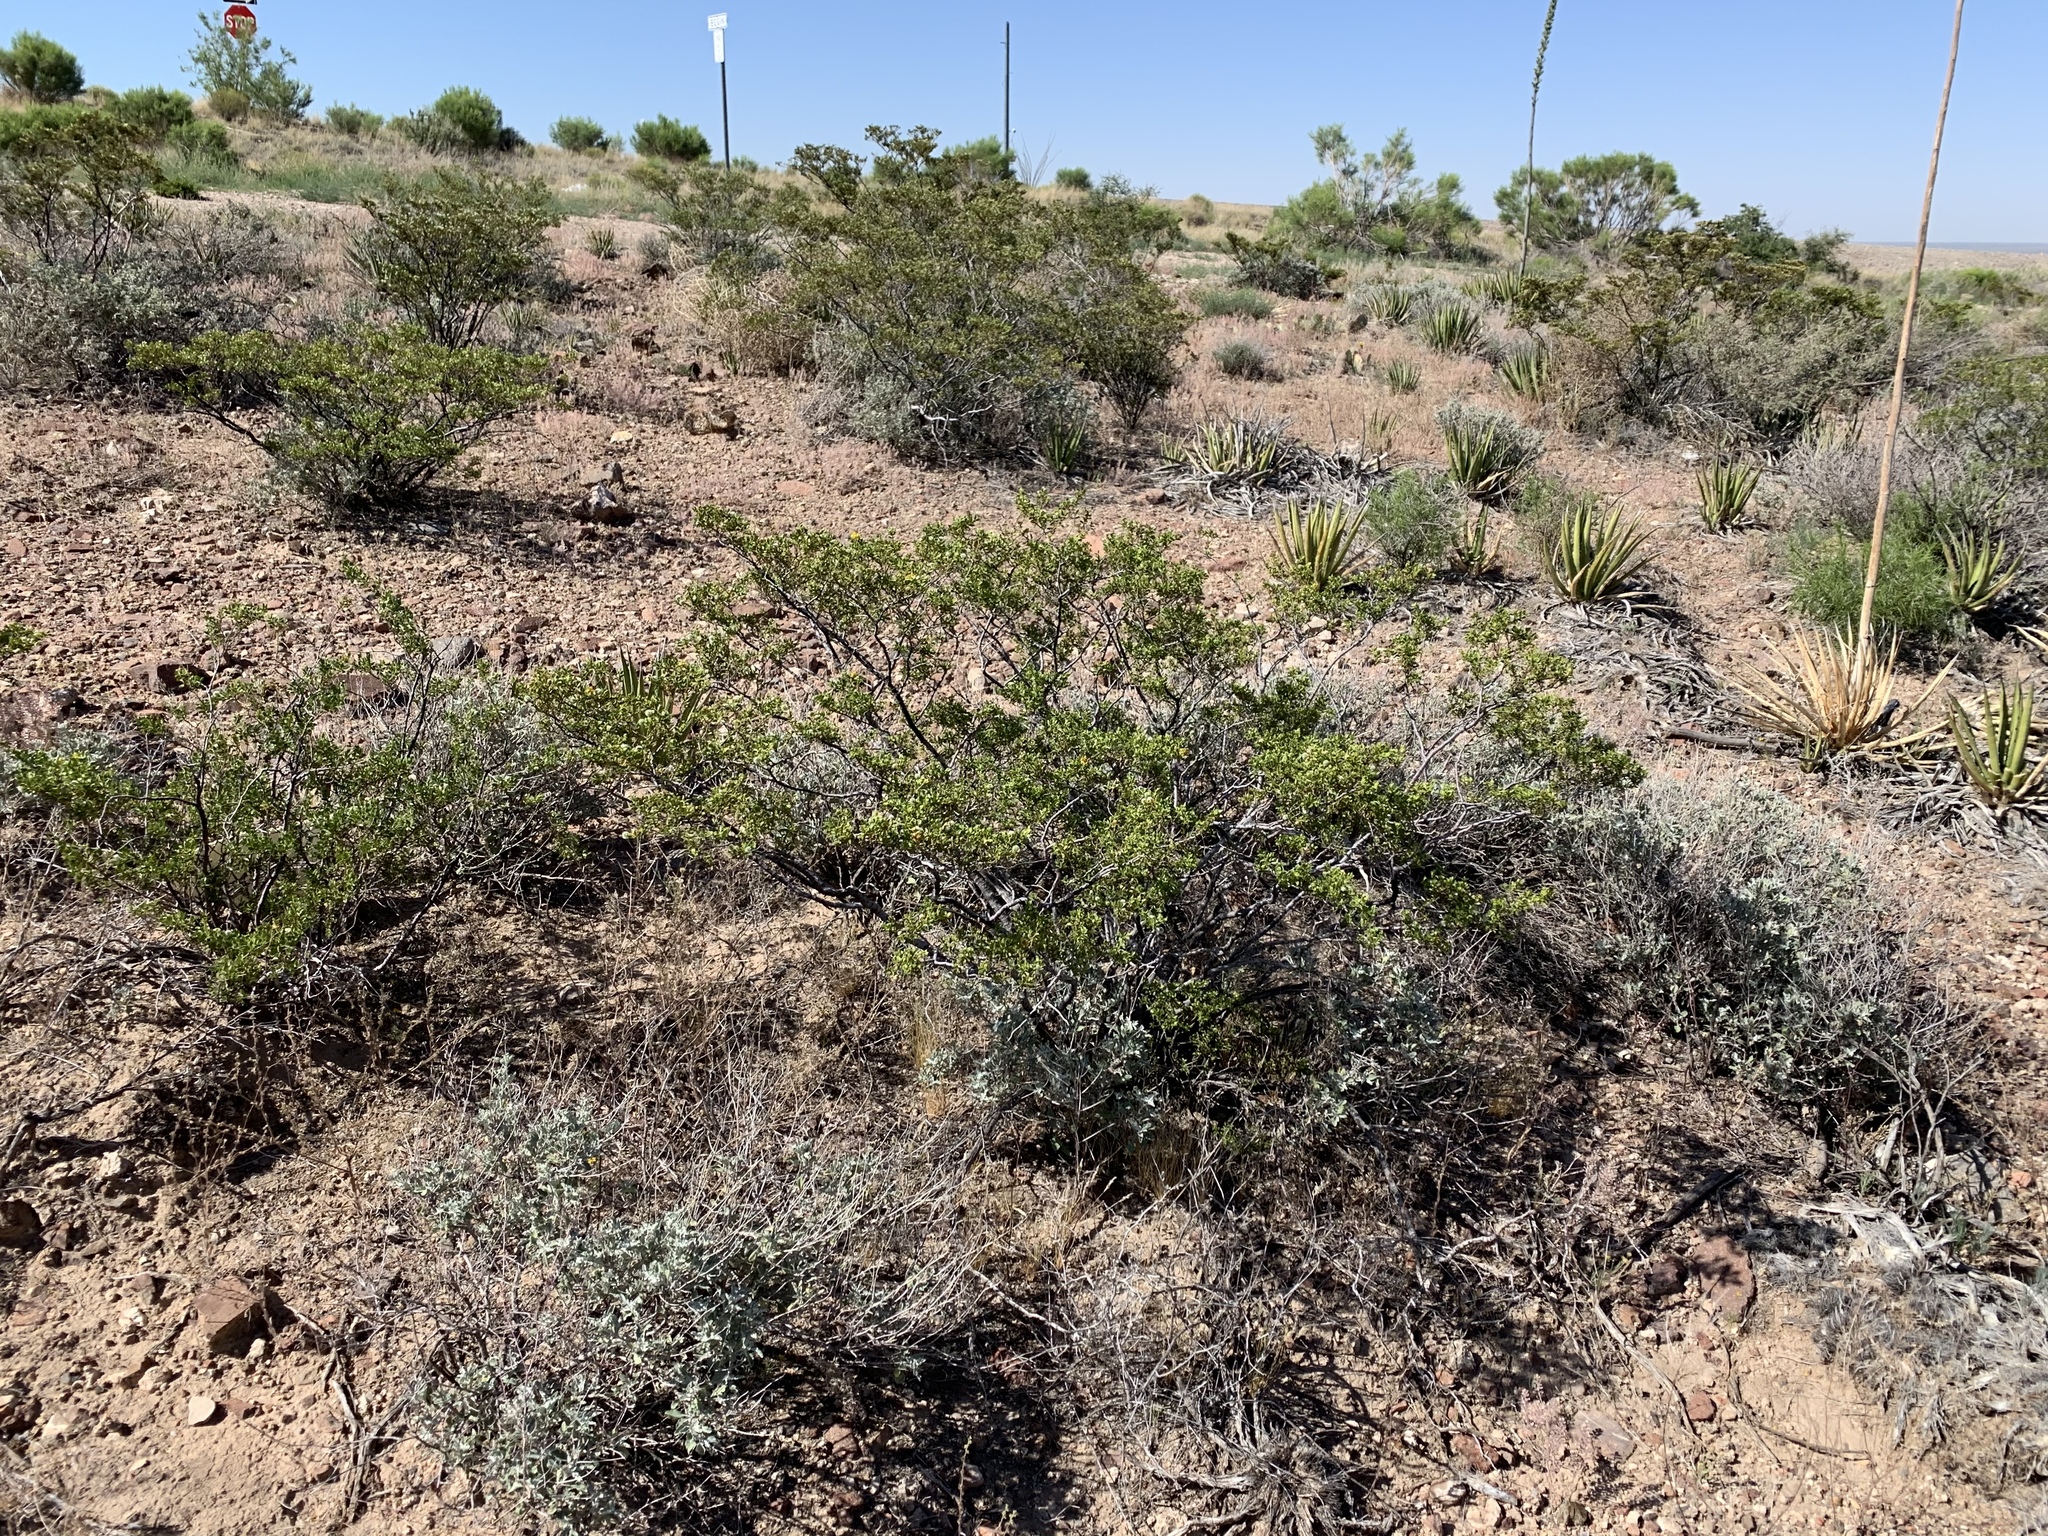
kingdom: Plantae
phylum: Tracheophyta
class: Magnoliopsida
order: Zygophyllales
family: Zygophyllaceae
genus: Larrea
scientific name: Larrea tridentata
